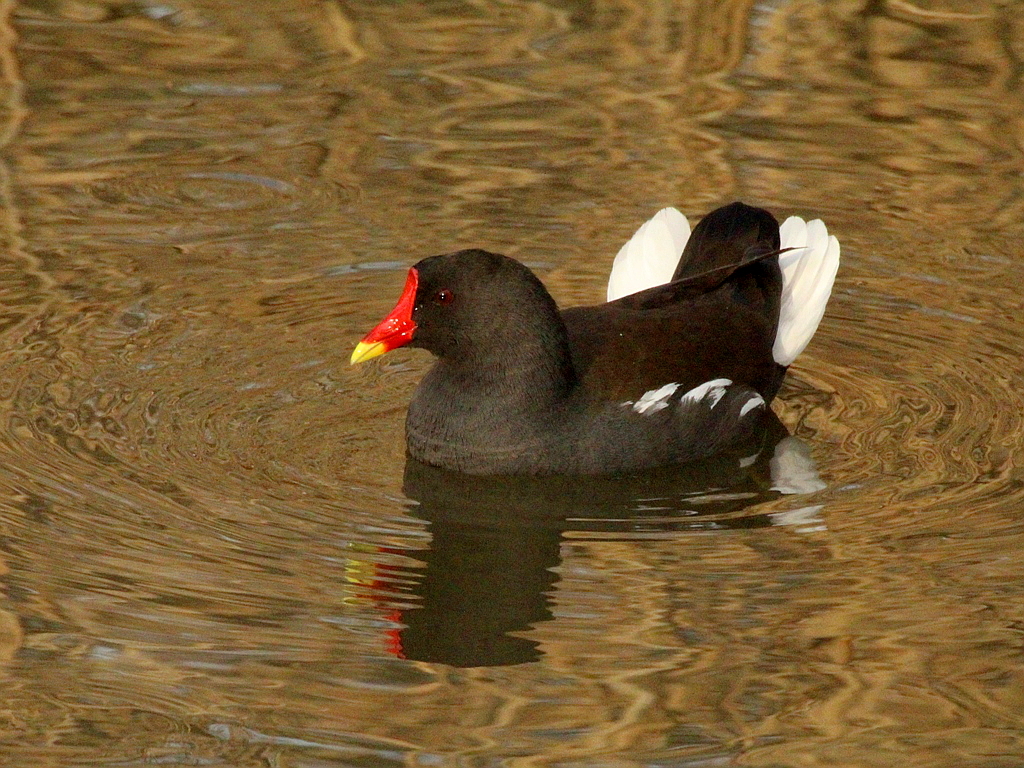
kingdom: Animalia
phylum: Chordata
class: Aves
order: Gruiformes
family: Rallidae
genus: Gallinula
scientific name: Gallinula chloropus
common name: Common moorhen
